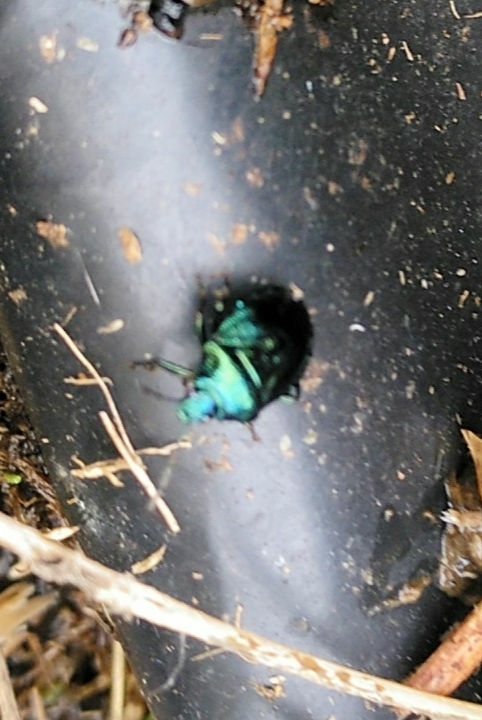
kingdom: Animalia
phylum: Arthropoda
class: Insecta
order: Hemiptera
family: Pentatomidae
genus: Zicrona
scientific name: Zicrona caerulea
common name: Blue shieldbug
